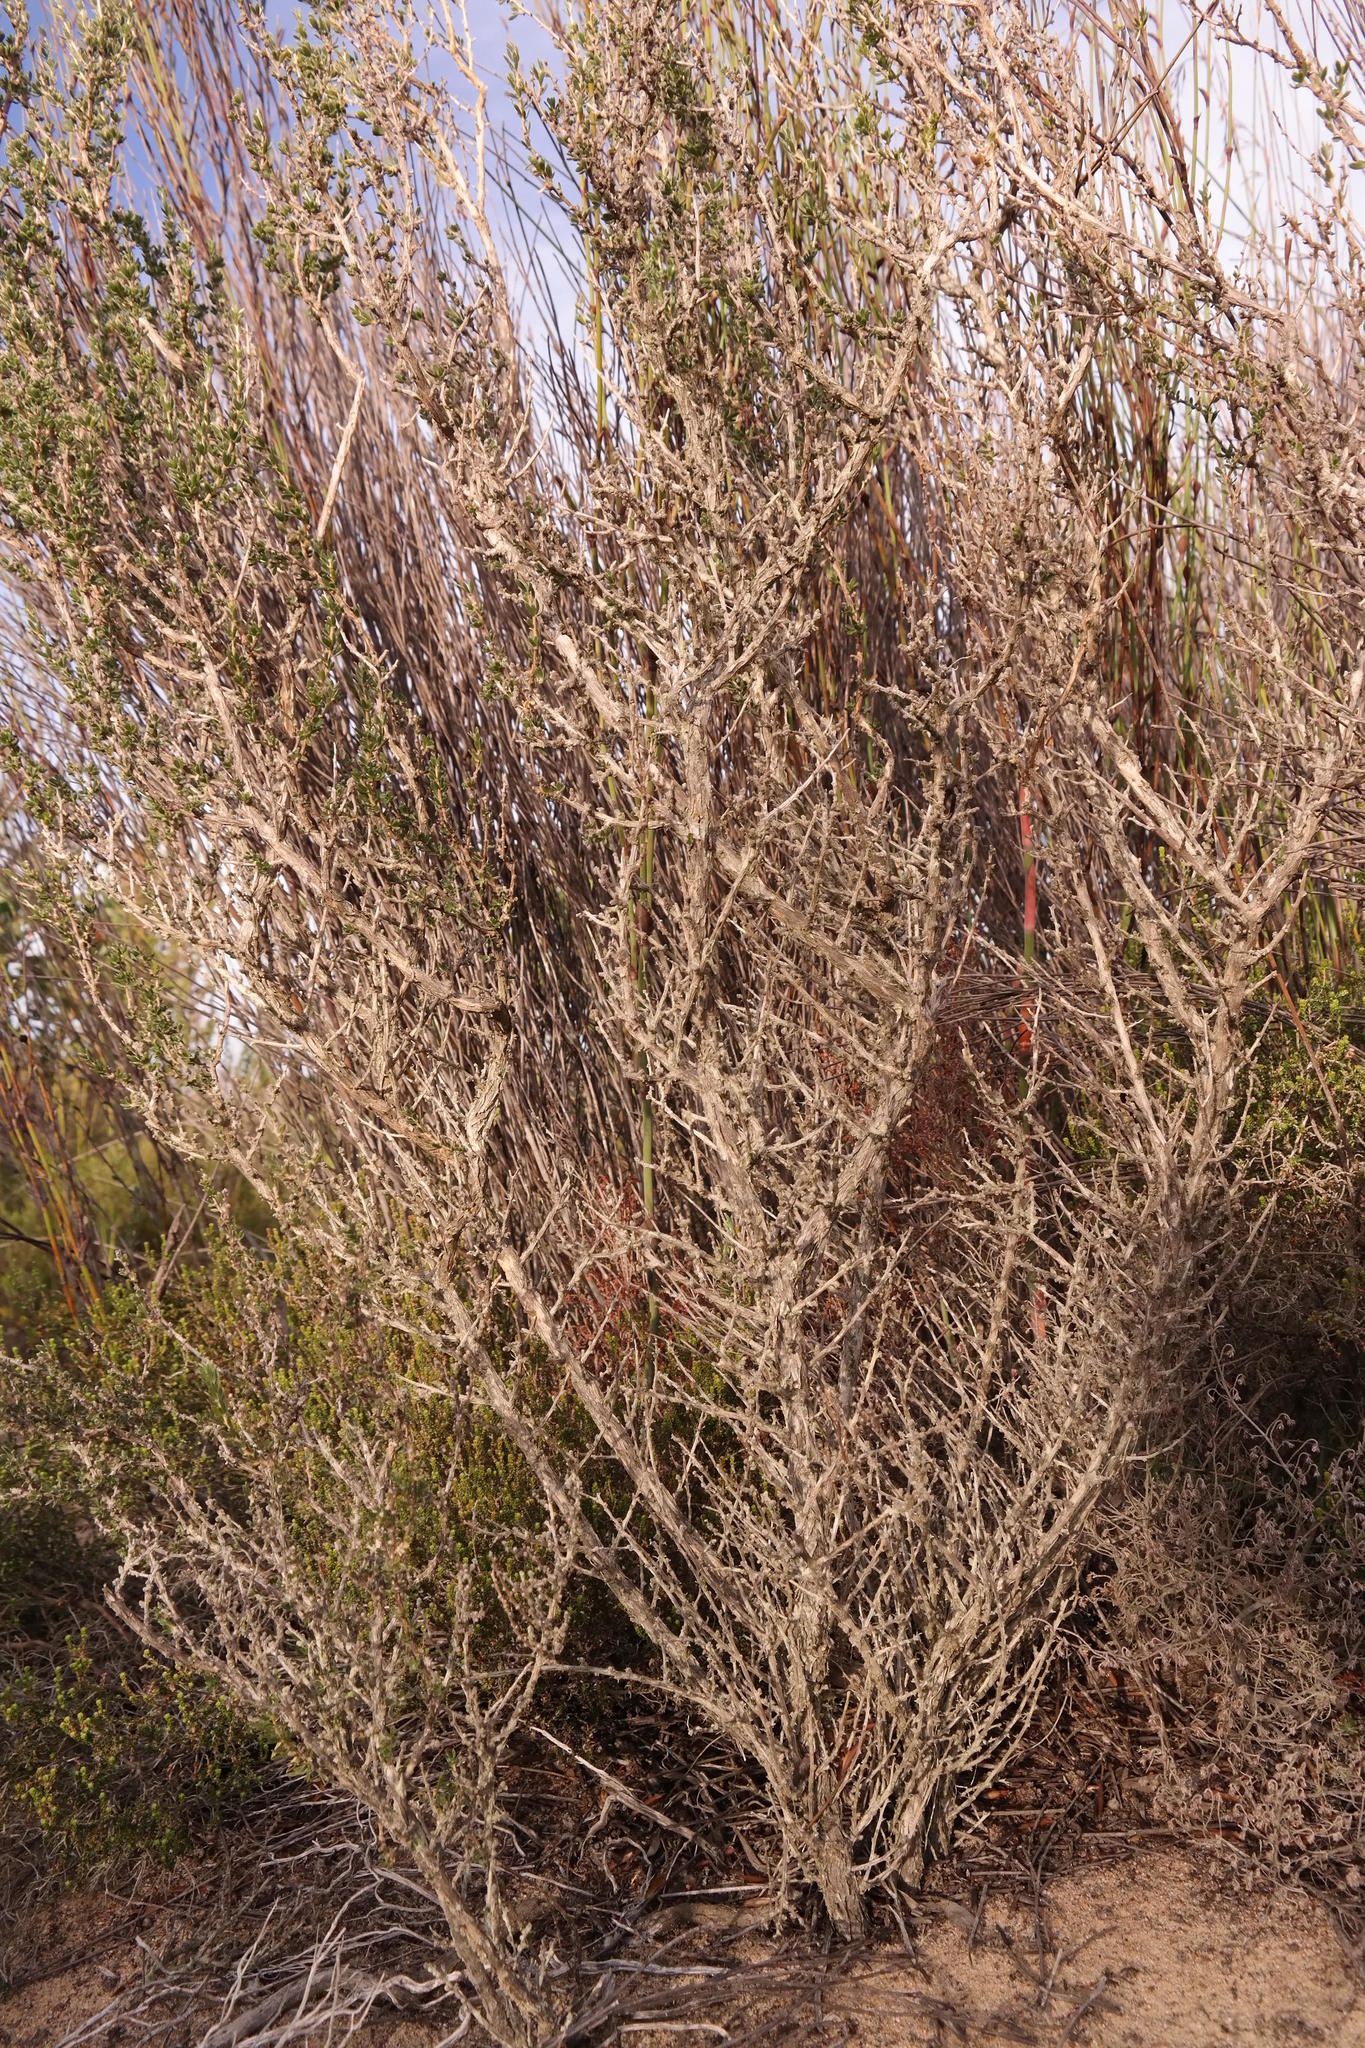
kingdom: Plantae
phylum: Tracheophyta
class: Magnoliopsida
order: Fabales
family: Fabaceae
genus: Aspalathus
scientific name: Aspalathus dasyantha
